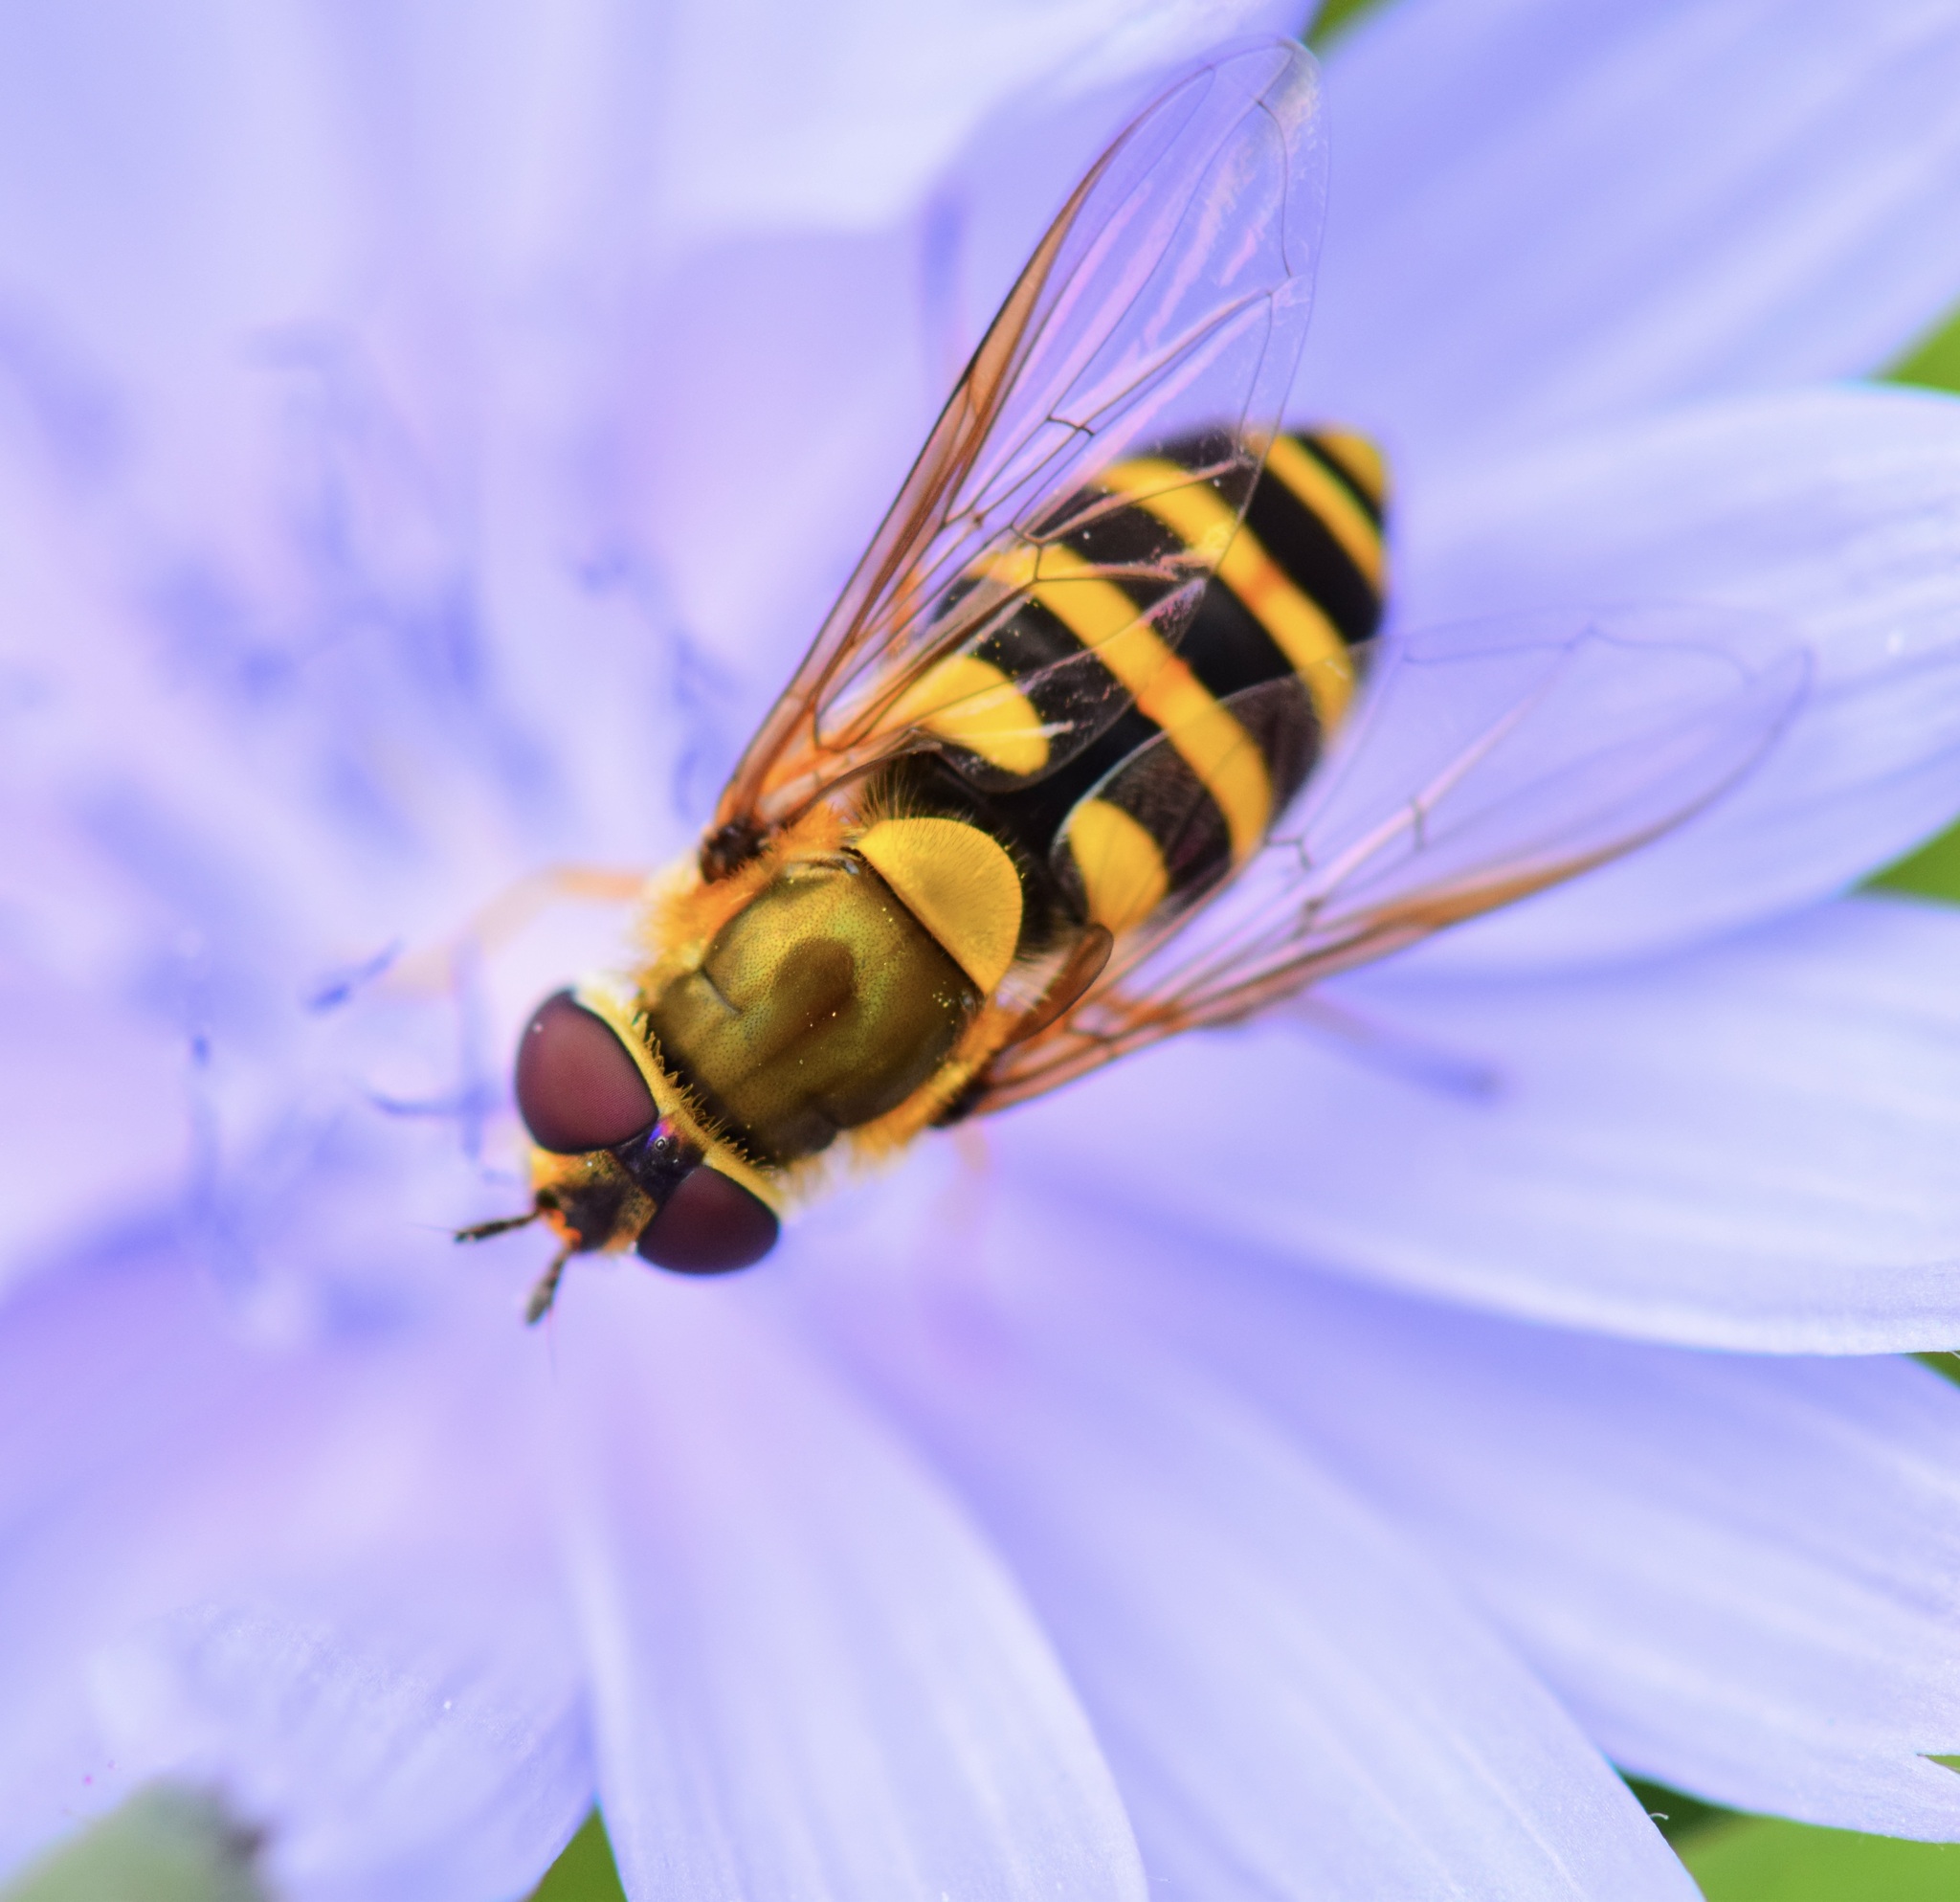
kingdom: Animalia
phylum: Arthropoda
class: Insecta
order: Diptera
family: Syrphidae
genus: Syrphus
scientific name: Syrphus
